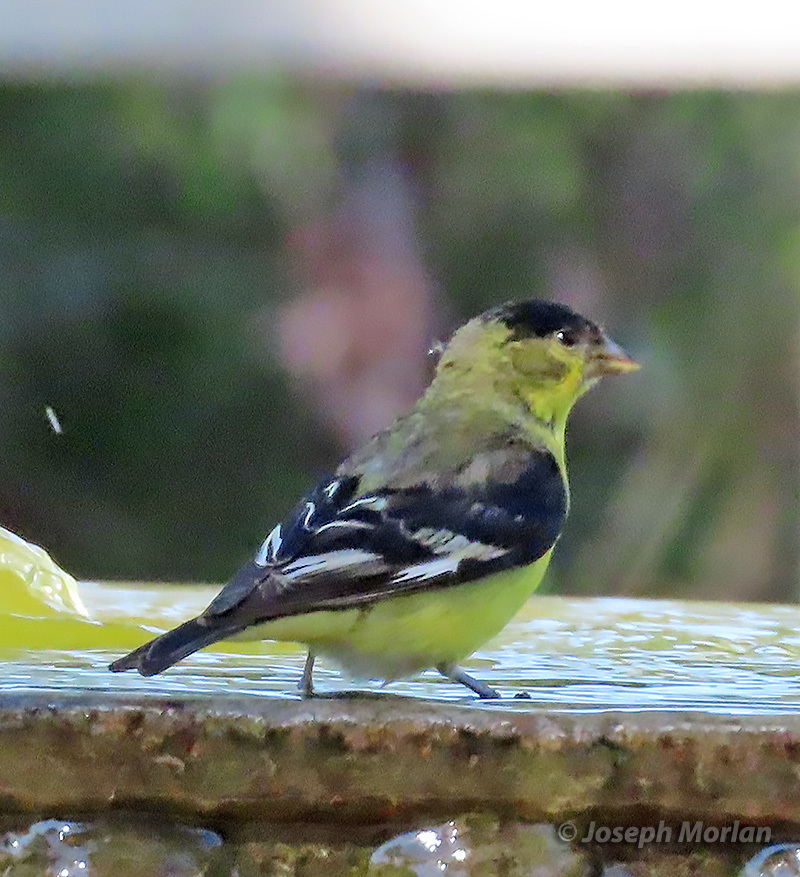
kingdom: Animalia
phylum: Chordata
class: Aves
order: Passeriformes
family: Fringillidae
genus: Spinus
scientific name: Spinus psaltria
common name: Lesser goldfinch
